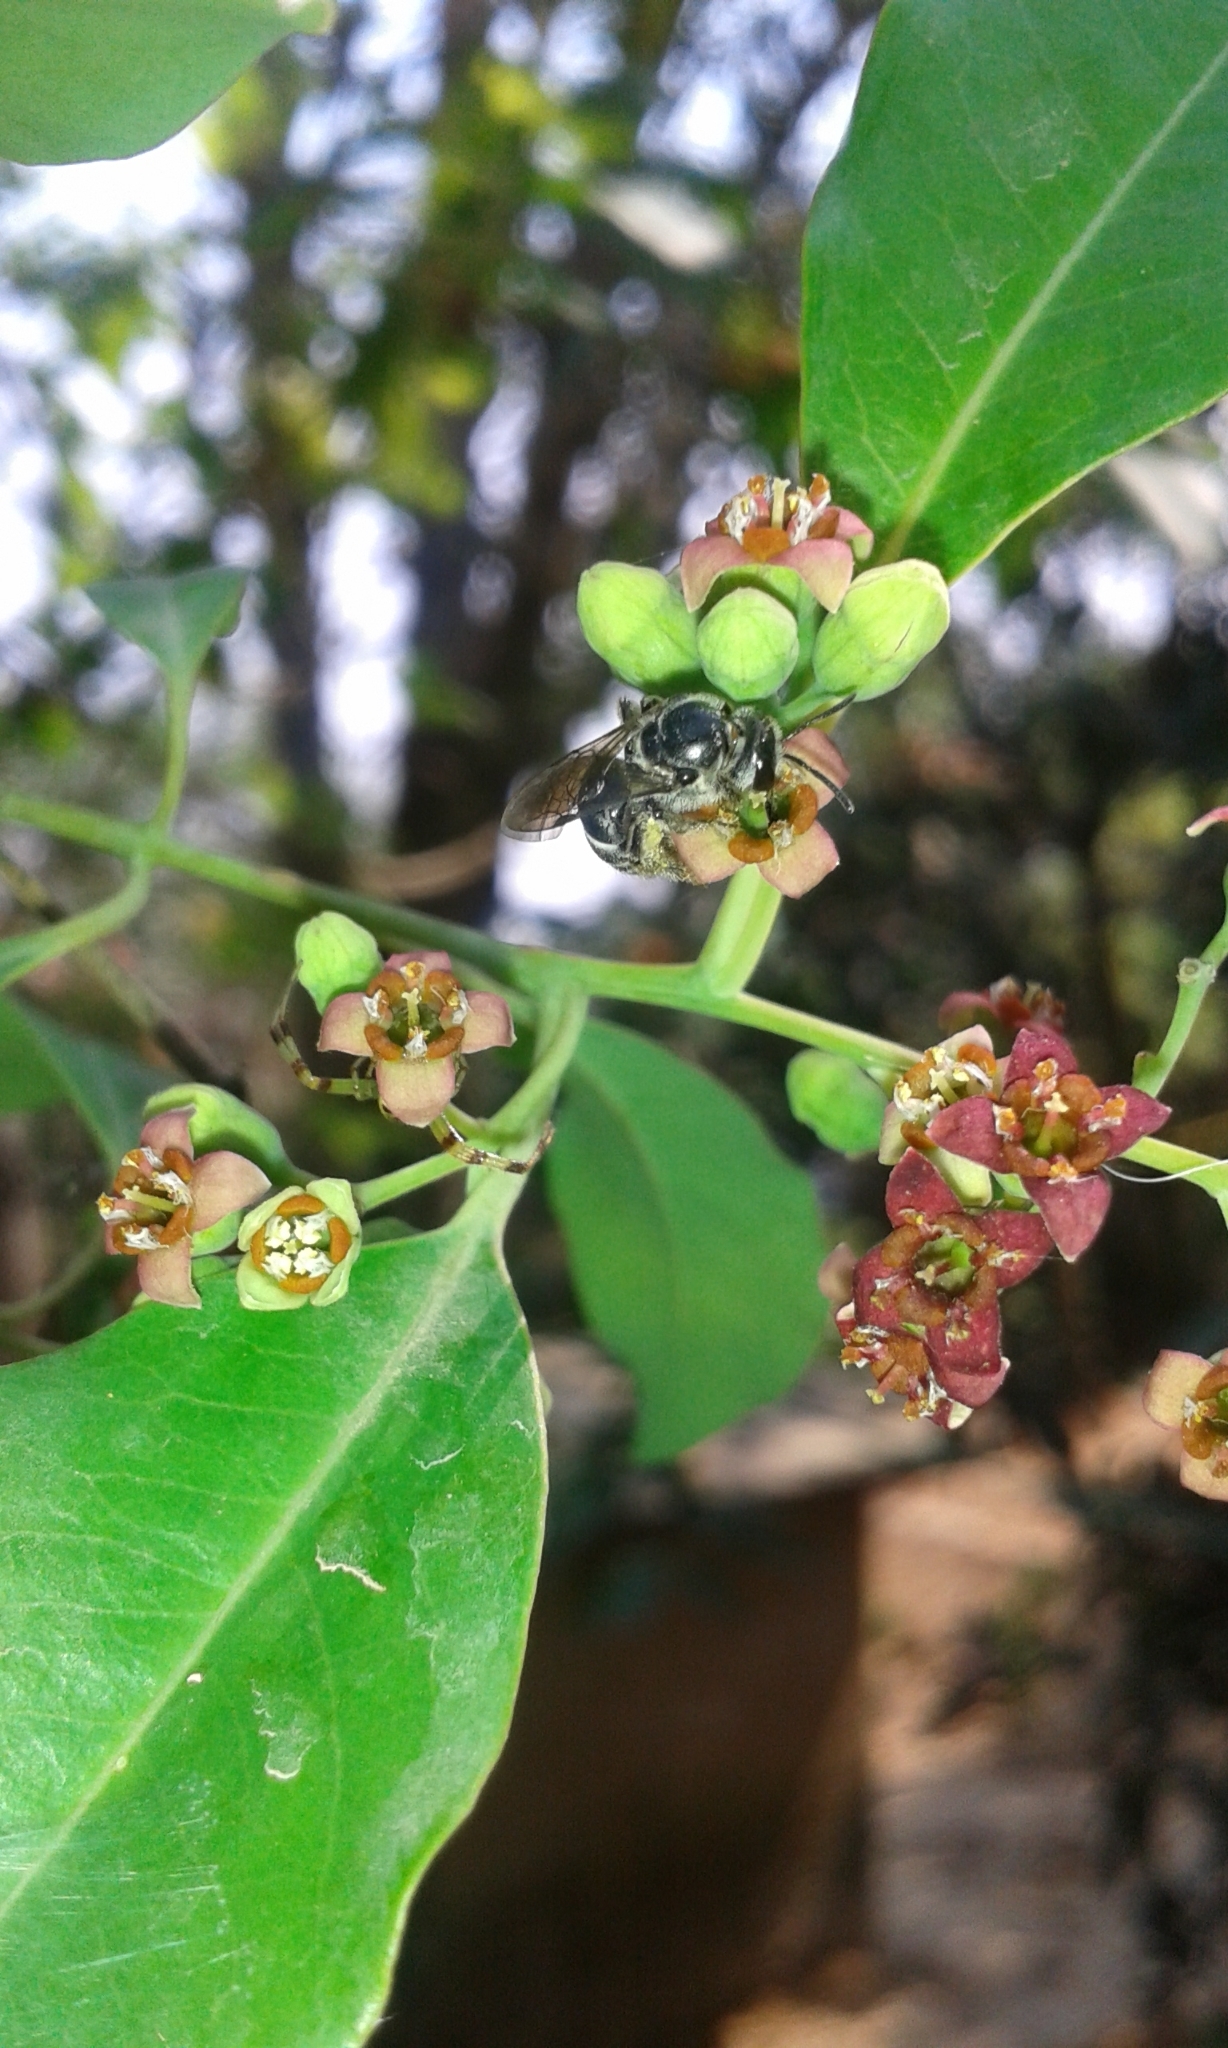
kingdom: Animalia
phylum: Arthropoda
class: Insecta
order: Hymenoptera
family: Halictidae
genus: Lasioglossum
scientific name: Lasioglossum albescens
